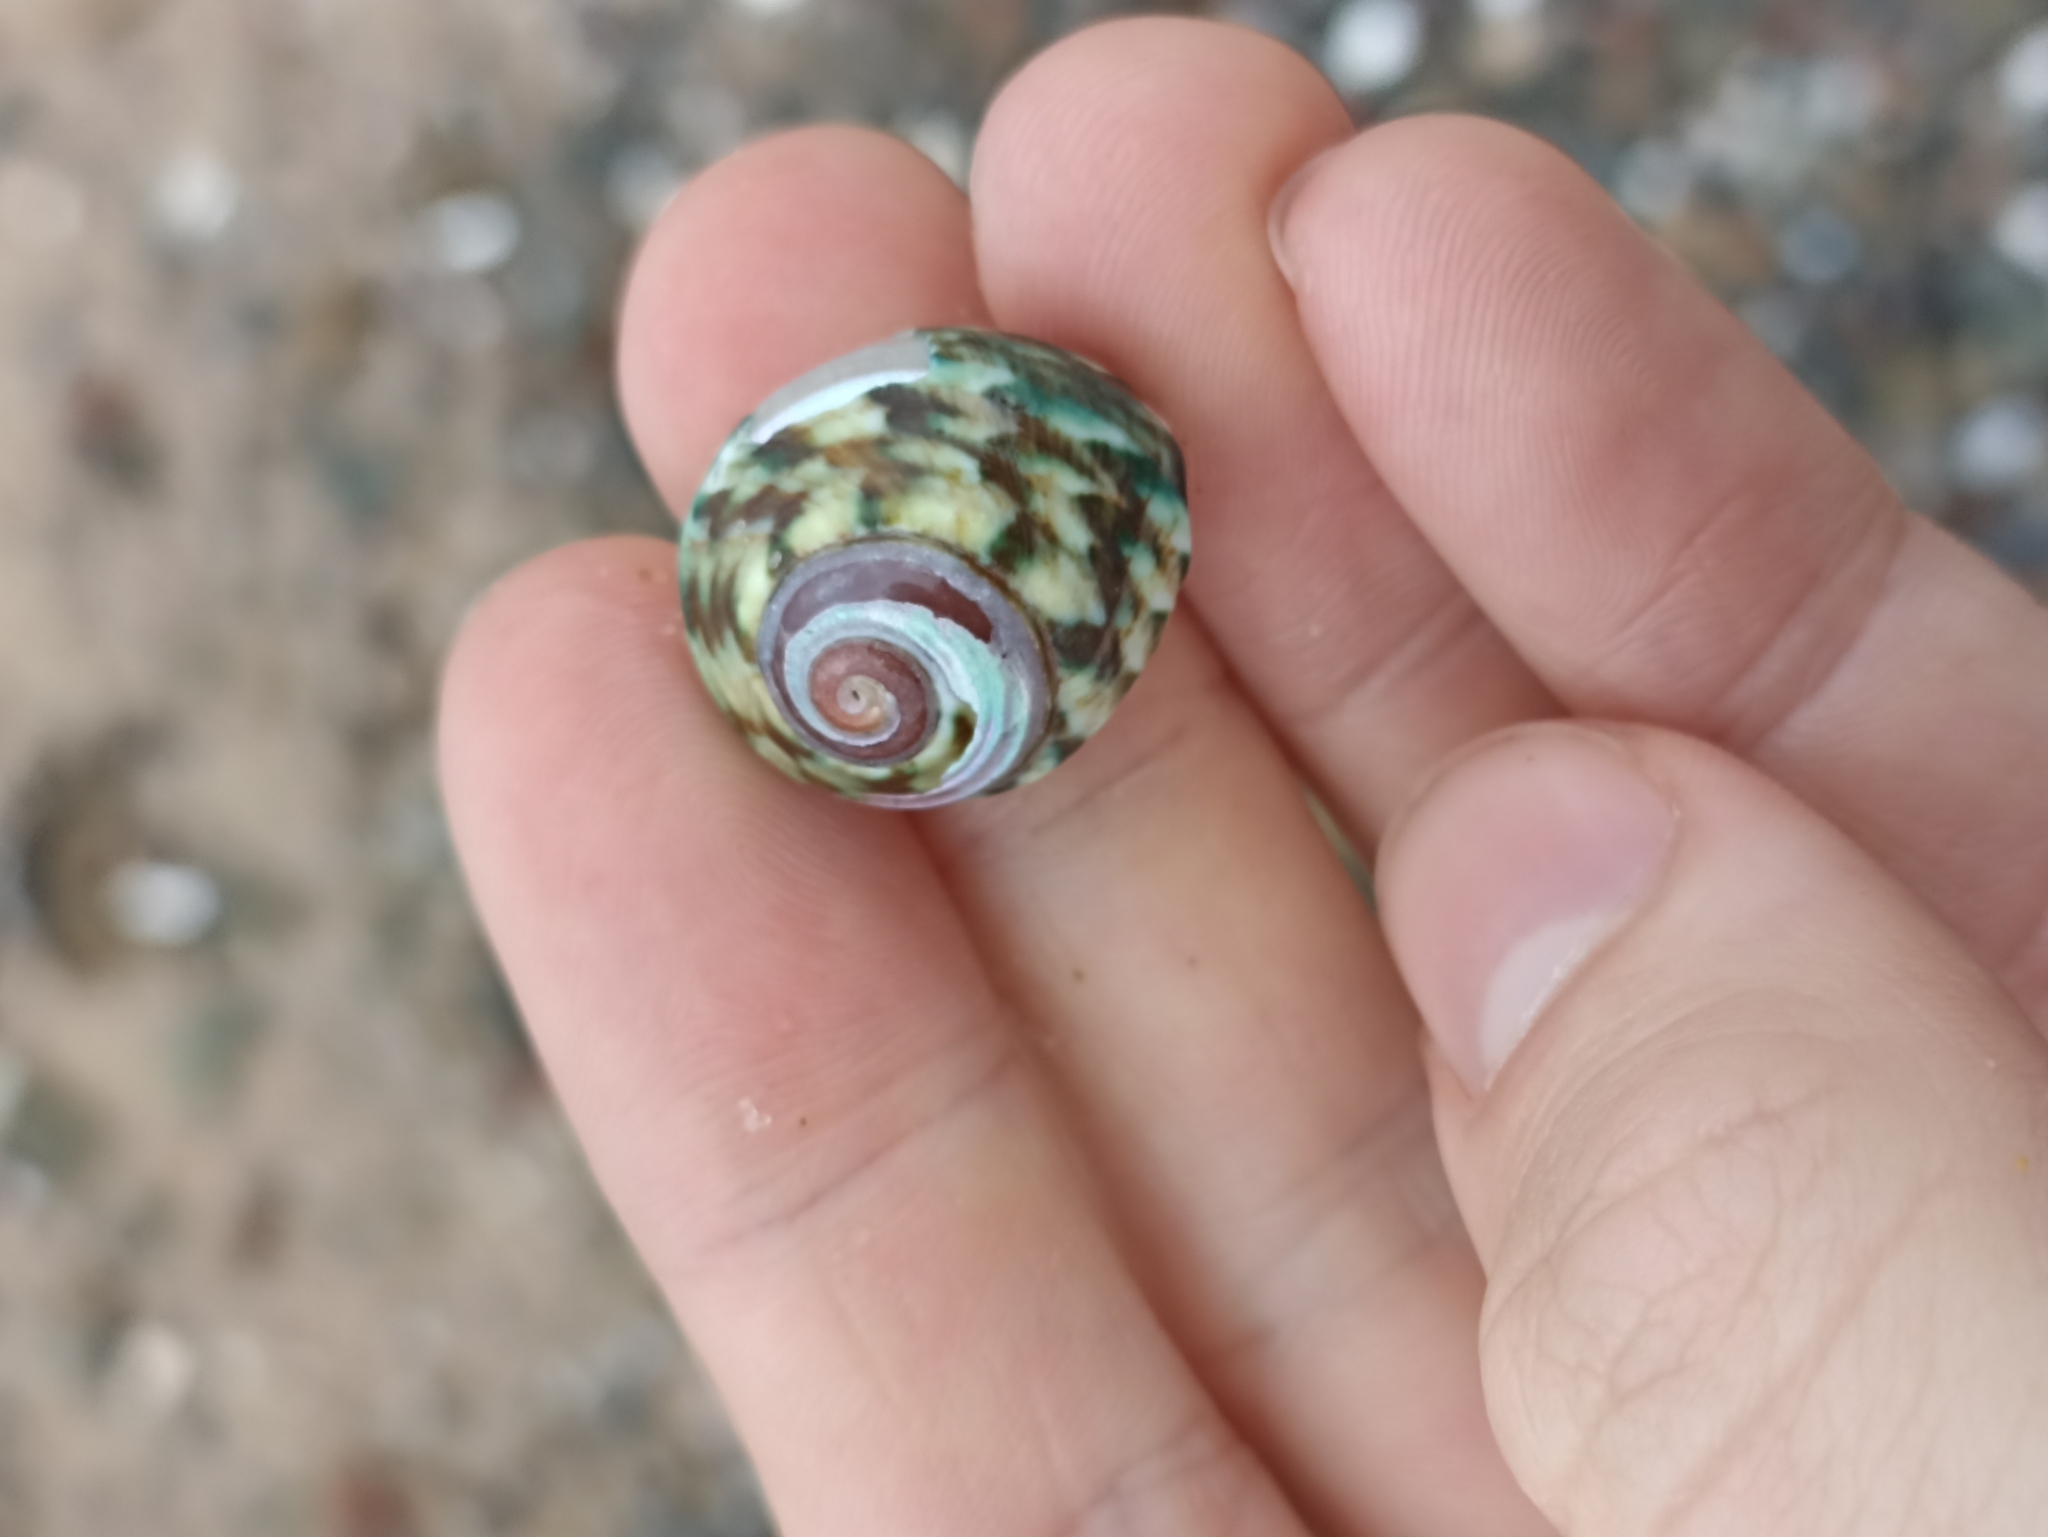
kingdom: Animalia
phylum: Mollusca
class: Gastropoda
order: Trochida
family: Turbinidae
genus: Lunella
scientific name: Lunella undulata
